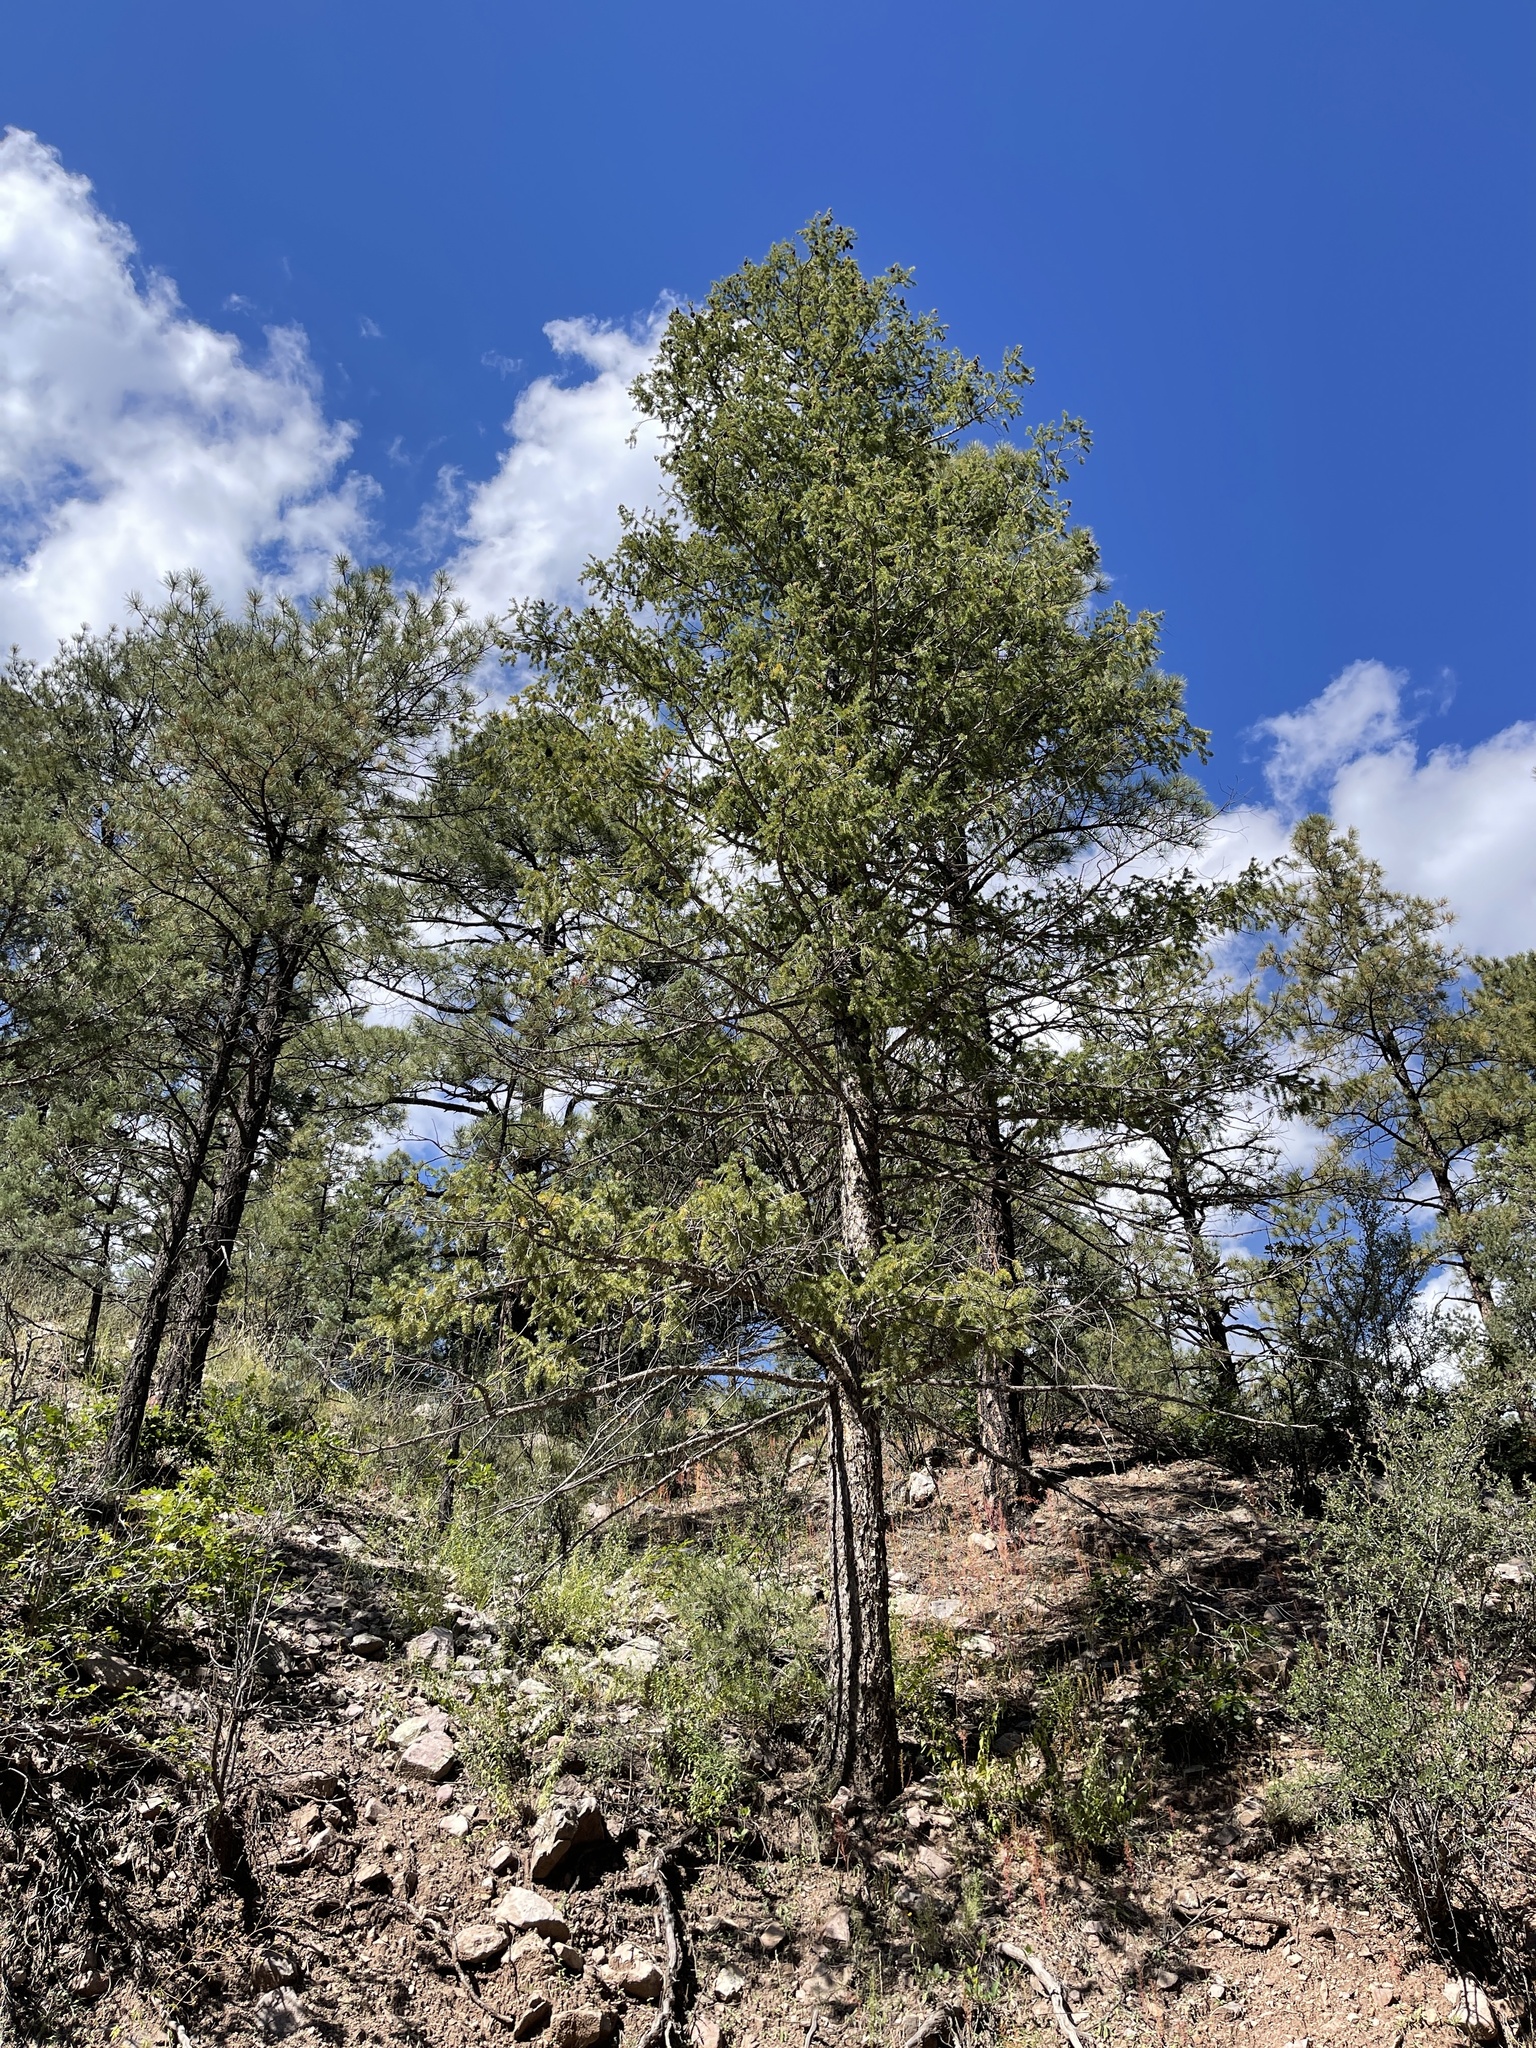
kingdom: Plantae
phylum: Tracheophyta
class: Pinopsida
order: Pinales
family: Pinaceae
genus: Pseudotsuga
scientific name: Pseudotsuga menziesii
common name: Douglas fir
